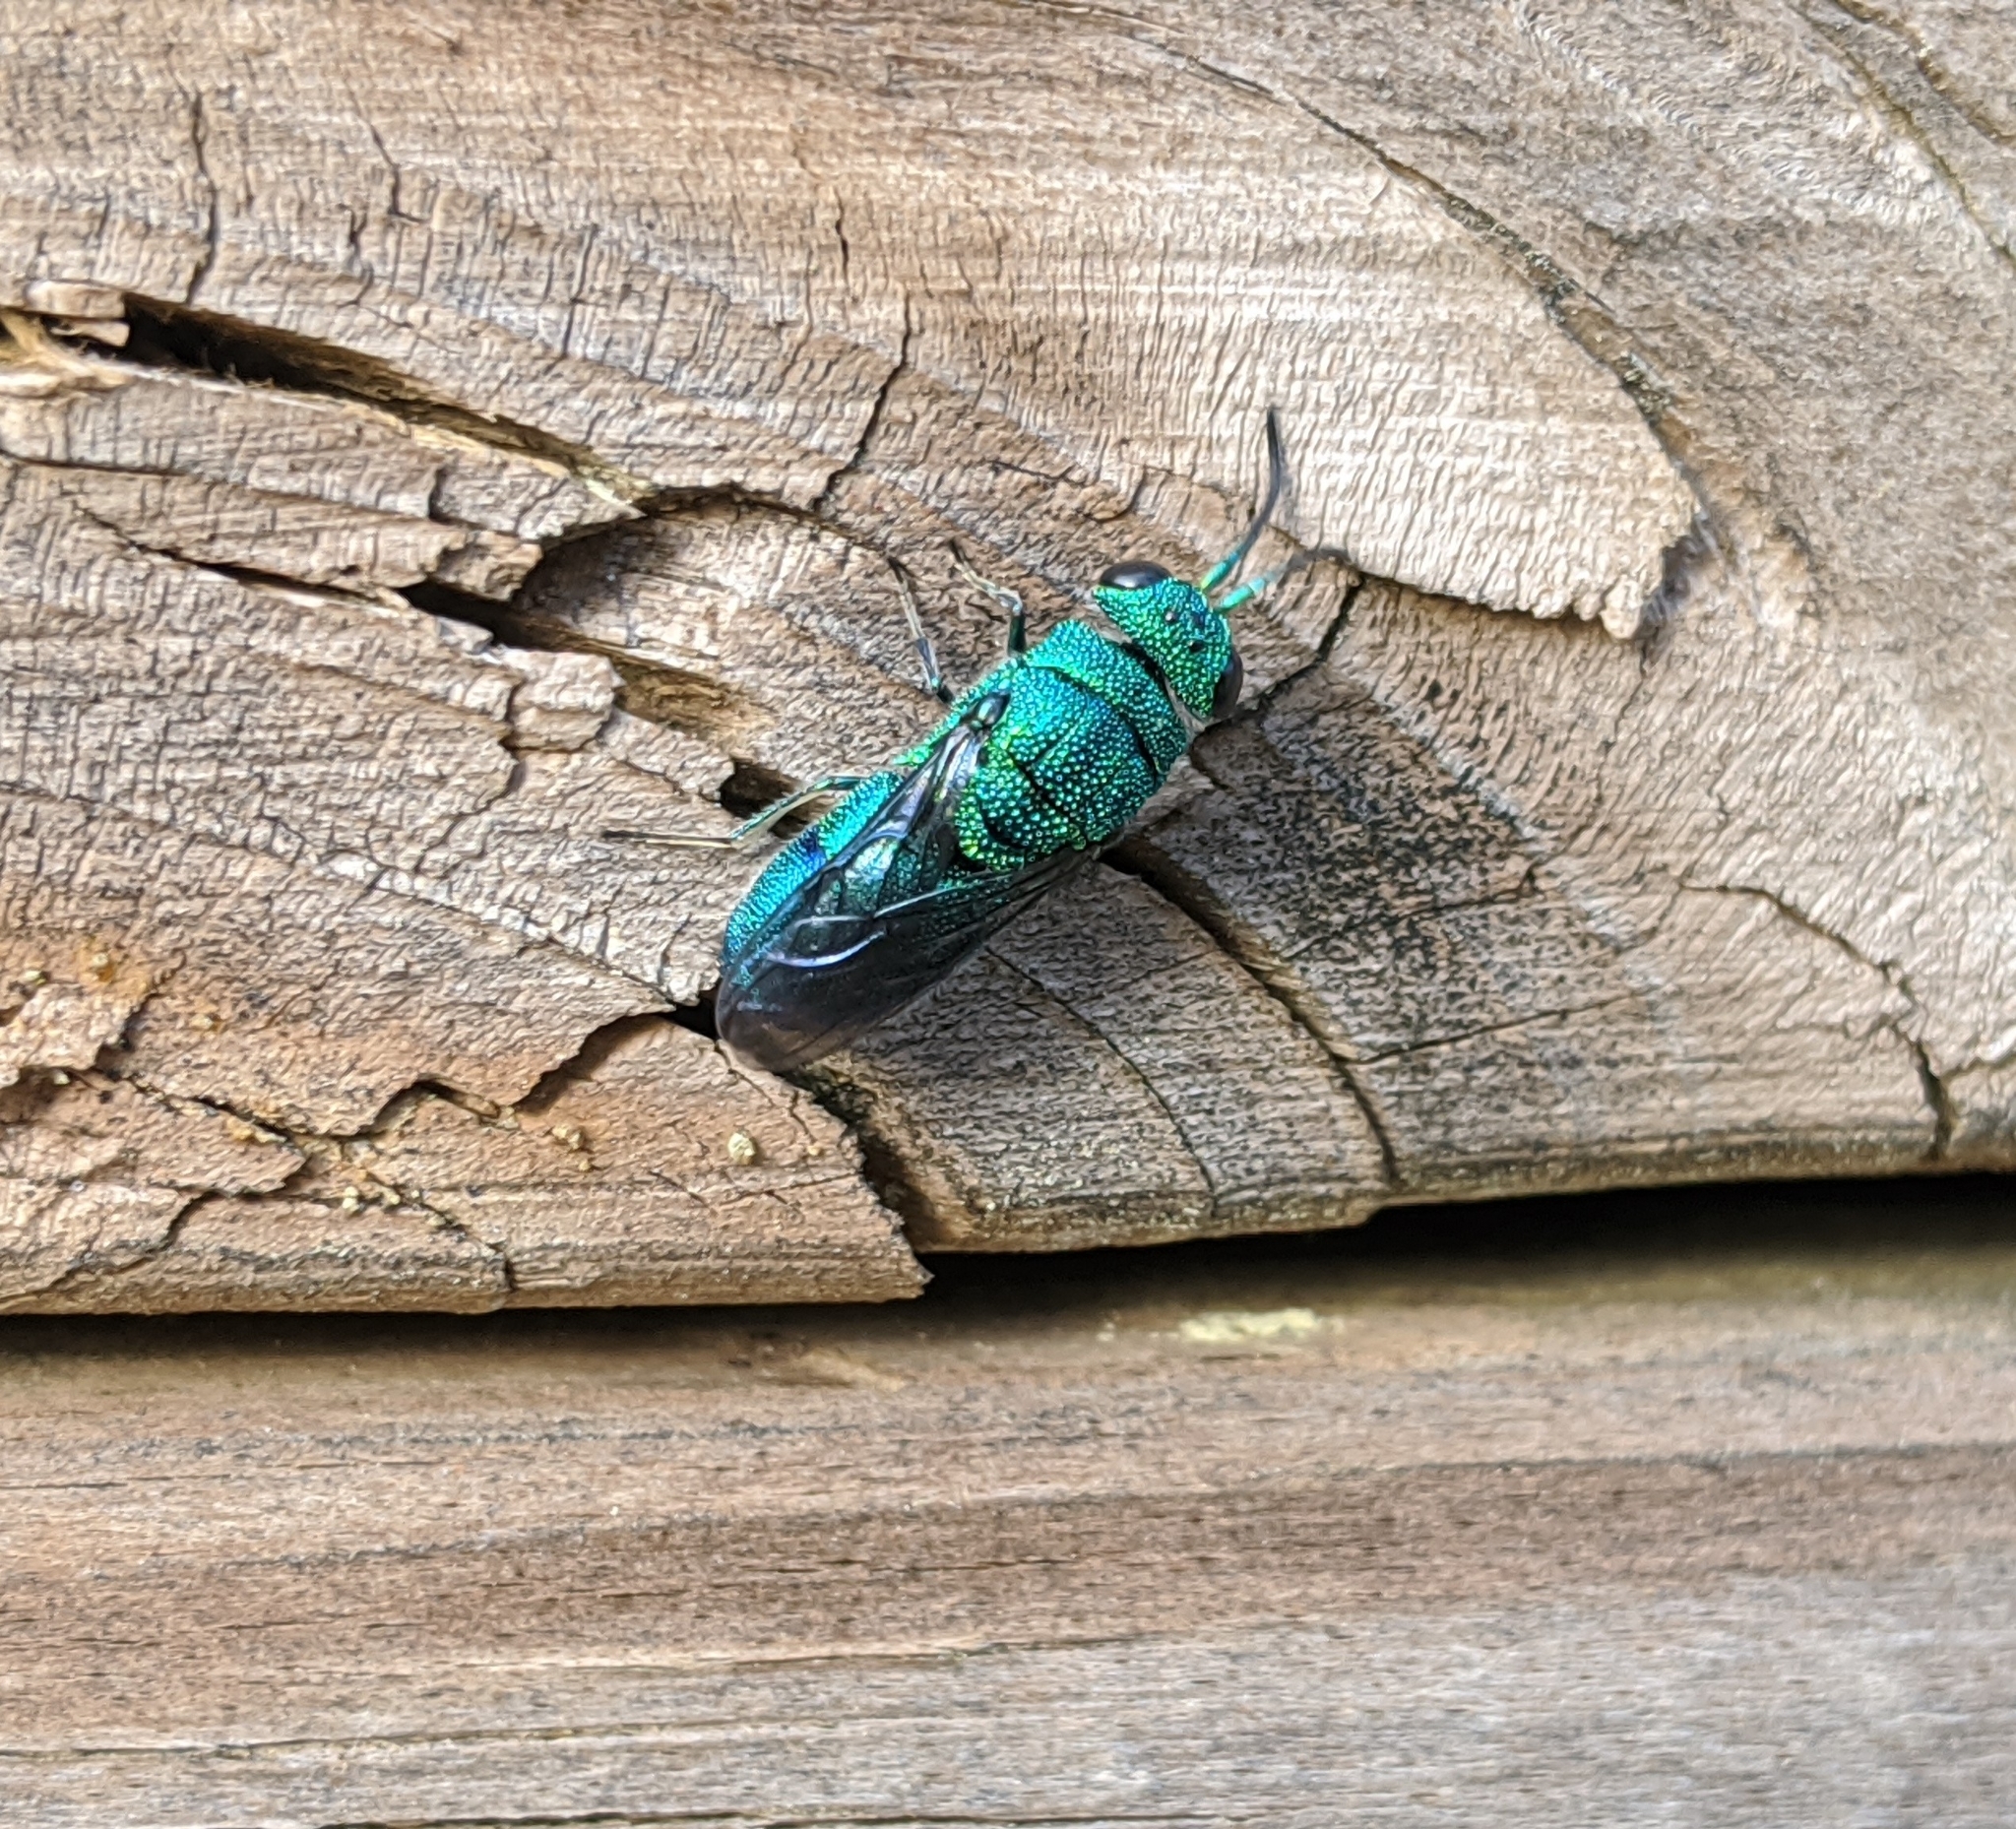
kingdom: Animalia
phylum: Arthropoda
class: Insecta
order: Hymenoptera
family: Chrysididae
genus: Chrysis
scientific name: Chrysis nisseri
